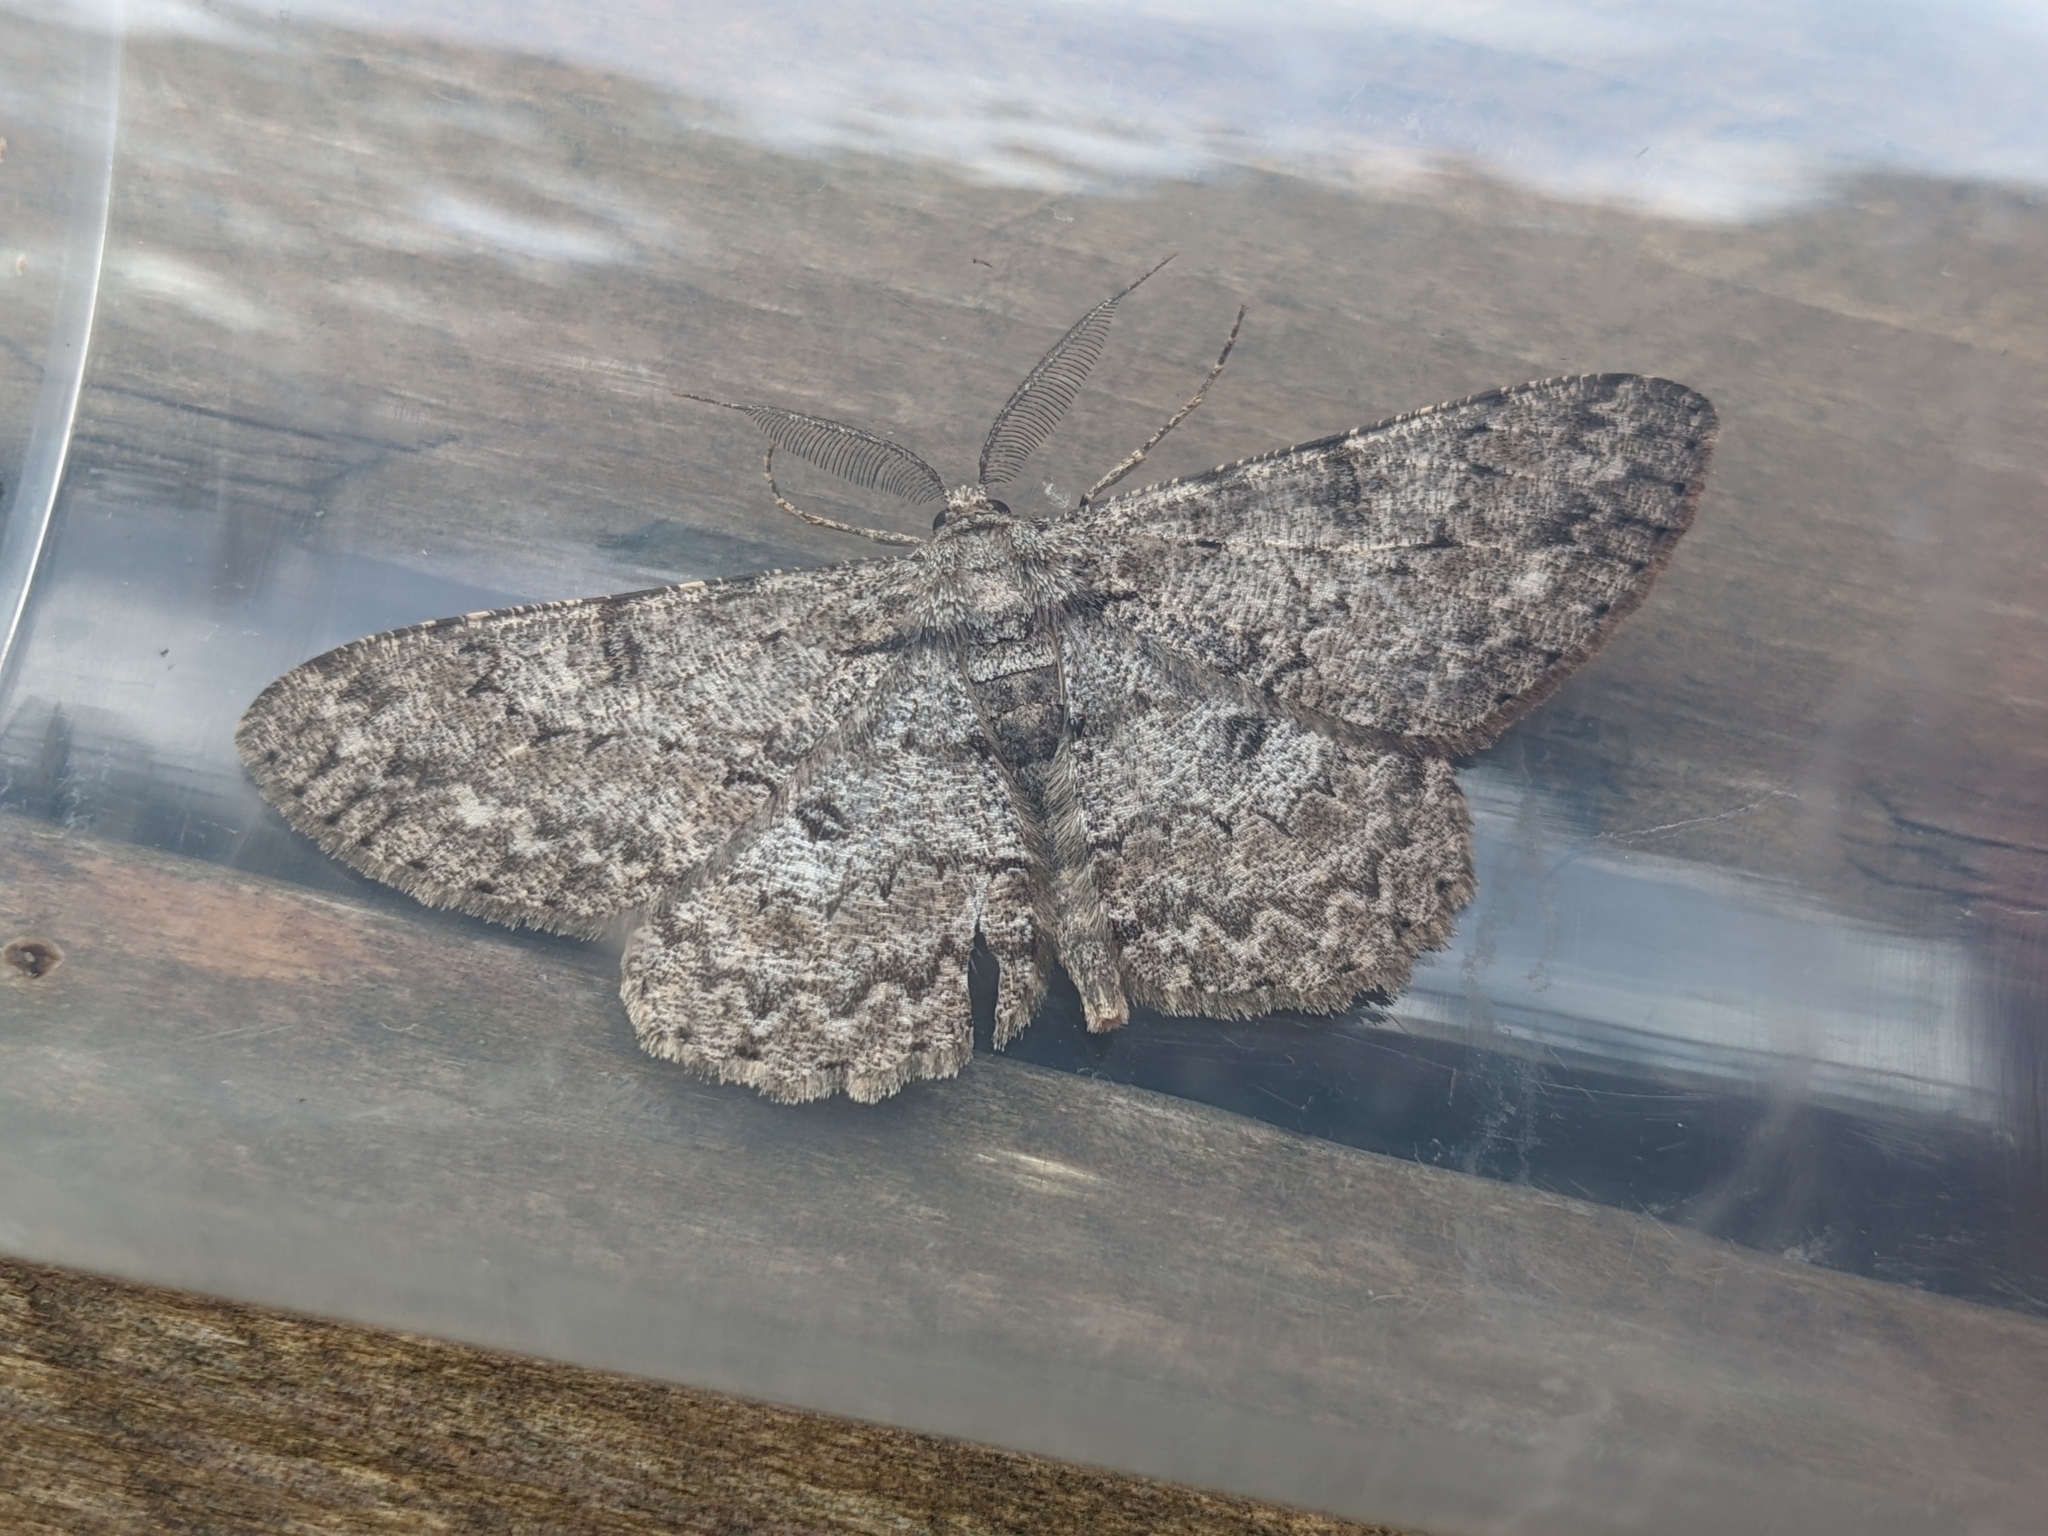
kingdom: Animalia
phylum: Arthropoda
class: Insecta
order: Lepidoptera
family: Geometridae
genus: Hypomecis
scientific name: Hypomecis punctinalis
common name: Pale oak beauty
